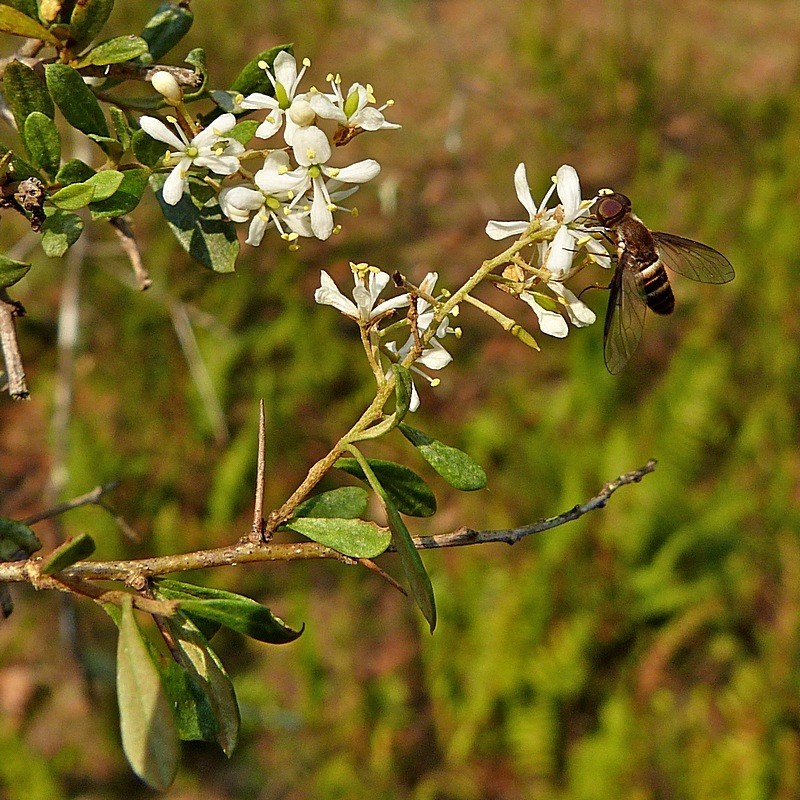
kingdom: Plantae
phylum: Tracheophyta
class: Magnoliopsida
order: Apiales
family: Pittosporaceae
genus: Bursaria
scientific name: Bursaria spinosa
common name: Australian blackthorn
